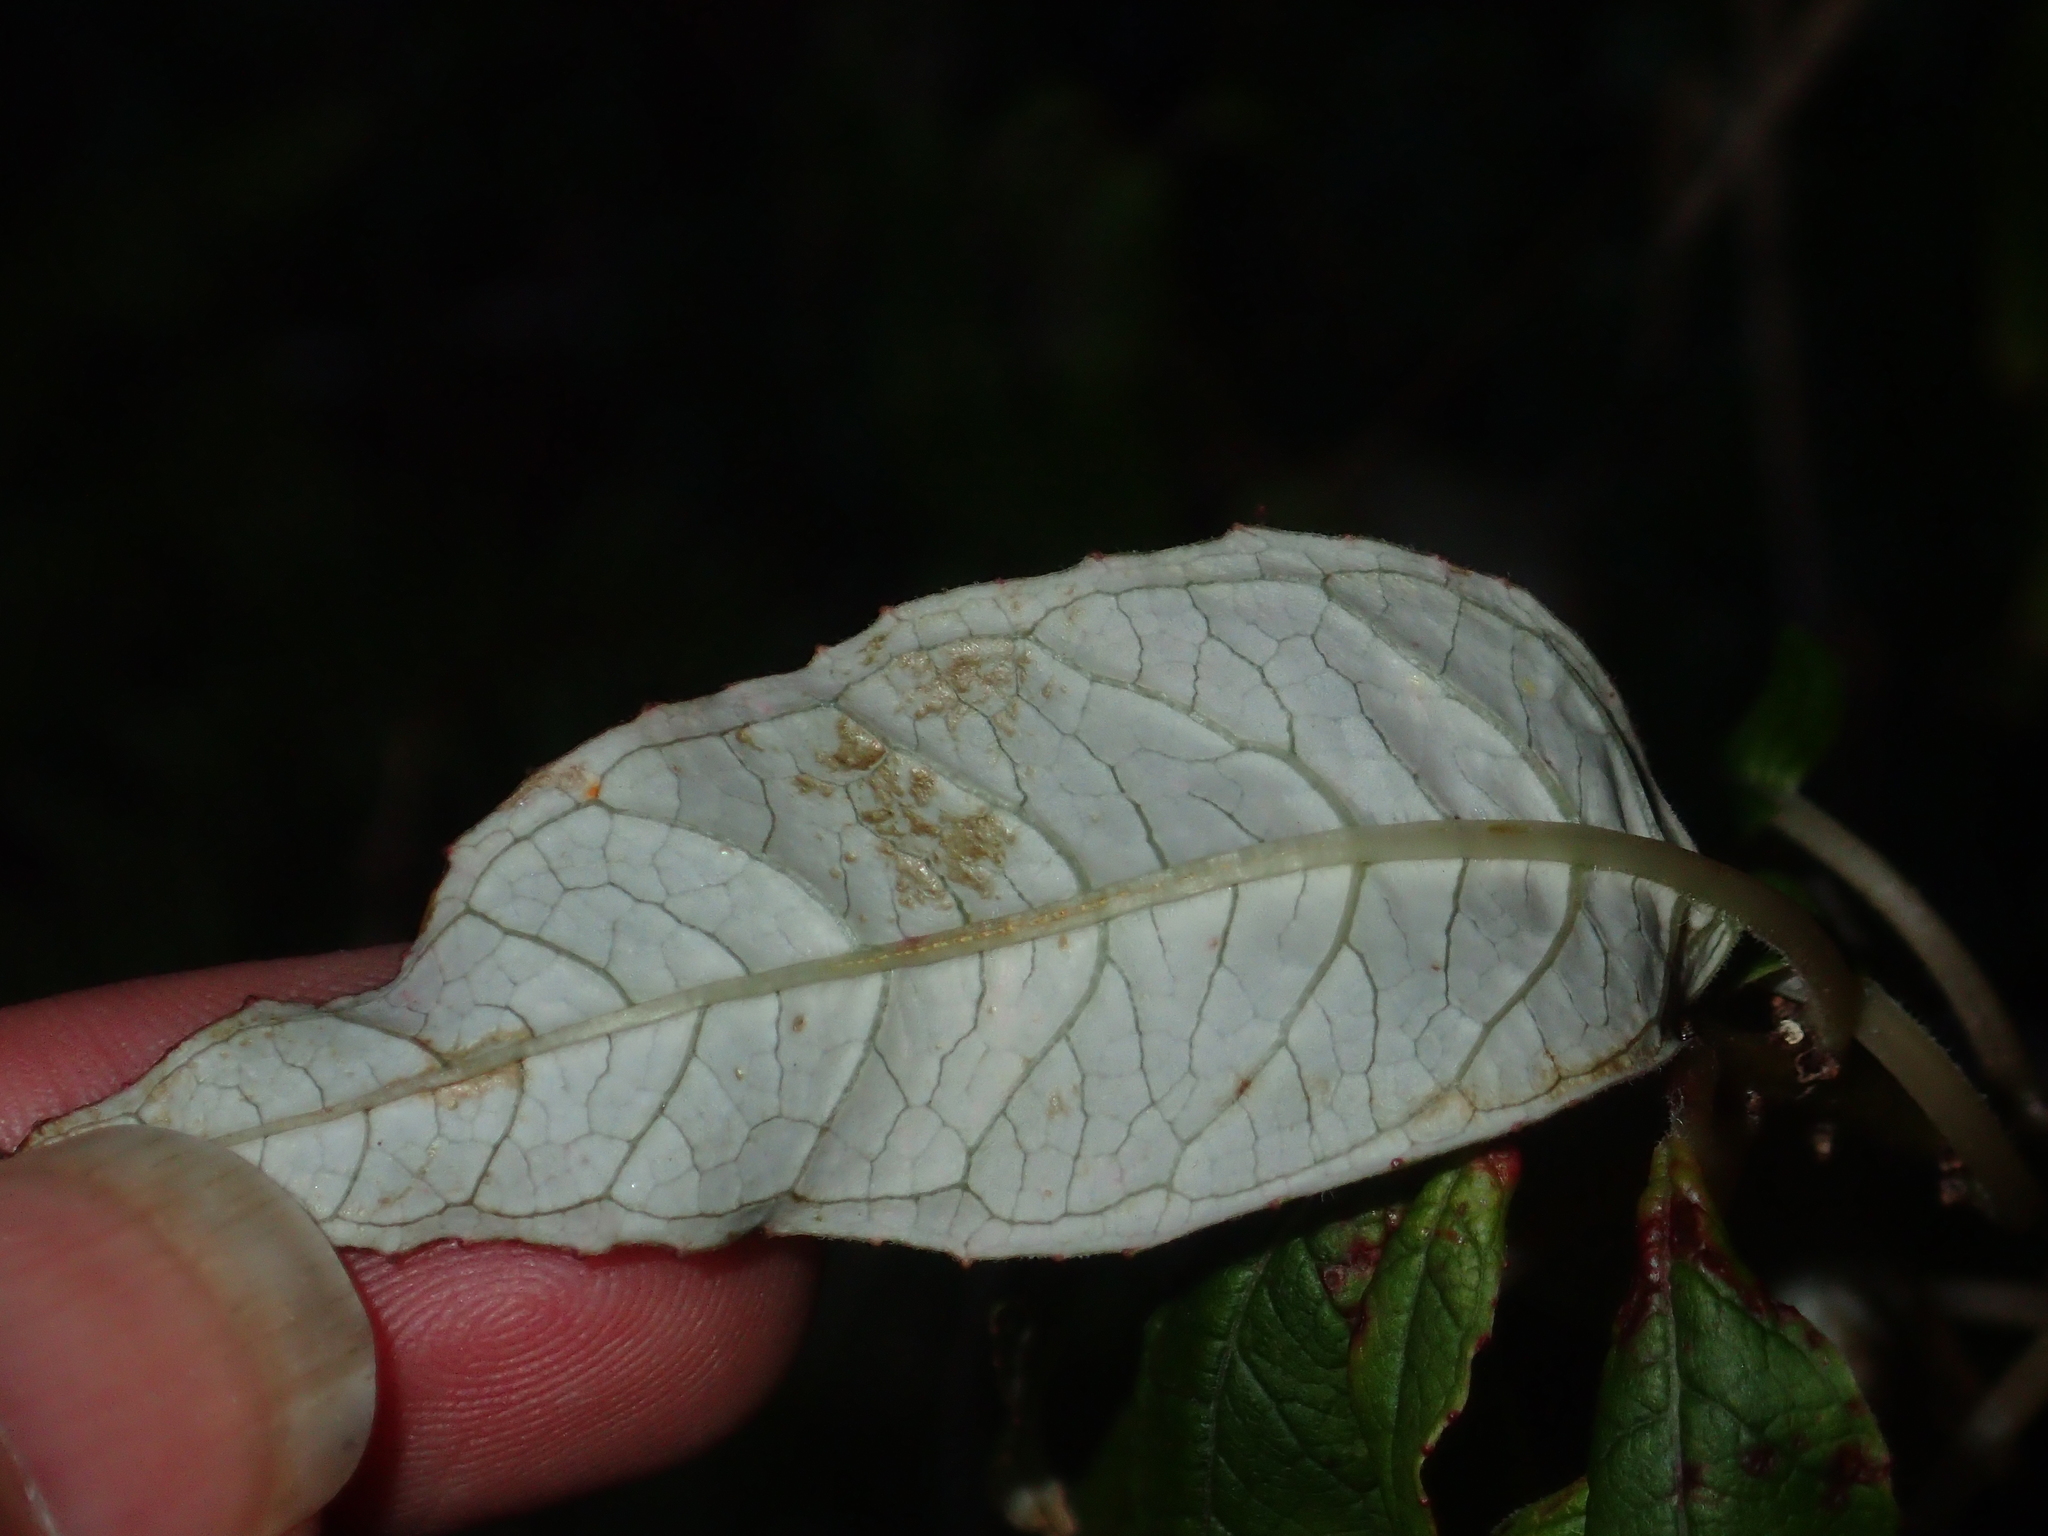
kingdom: Plantae
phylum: Tracheophyta
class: Magnoliopsida
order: Myrtales
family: Onagraceae
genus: Fuchsia
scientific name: Fuchsia excorticata
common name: Tree fuchsia
